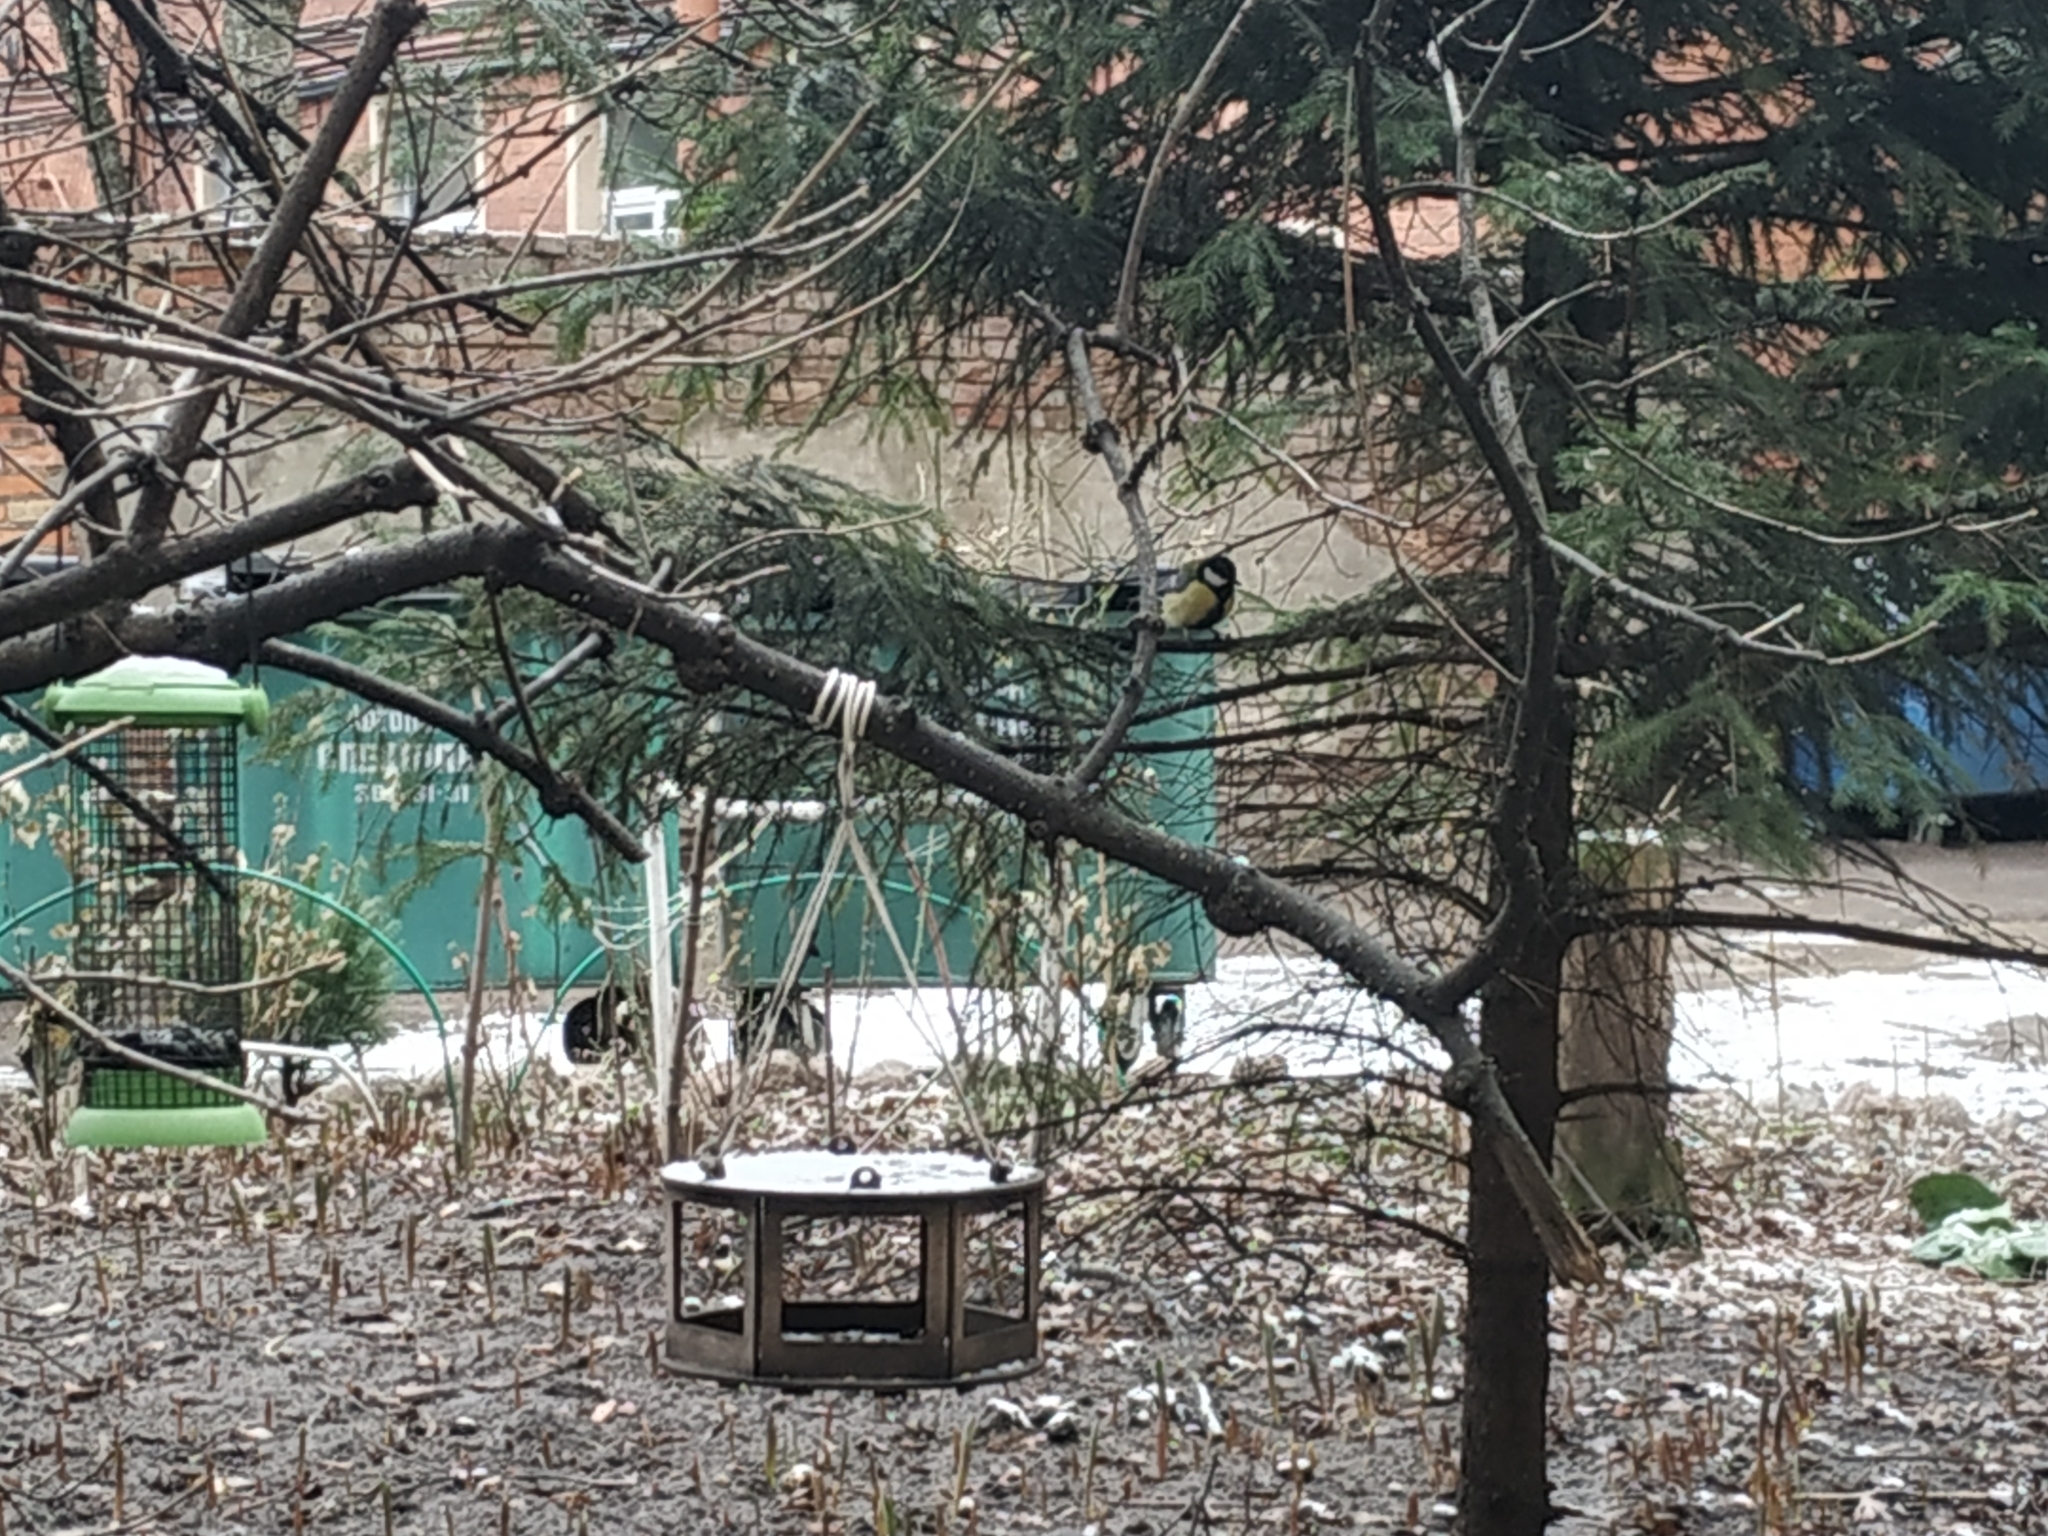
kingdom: Animalia
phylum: Chordata
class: Aves
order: Passeriformes
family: Paridae
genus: Parus
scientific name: Parus major
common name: Great tit
